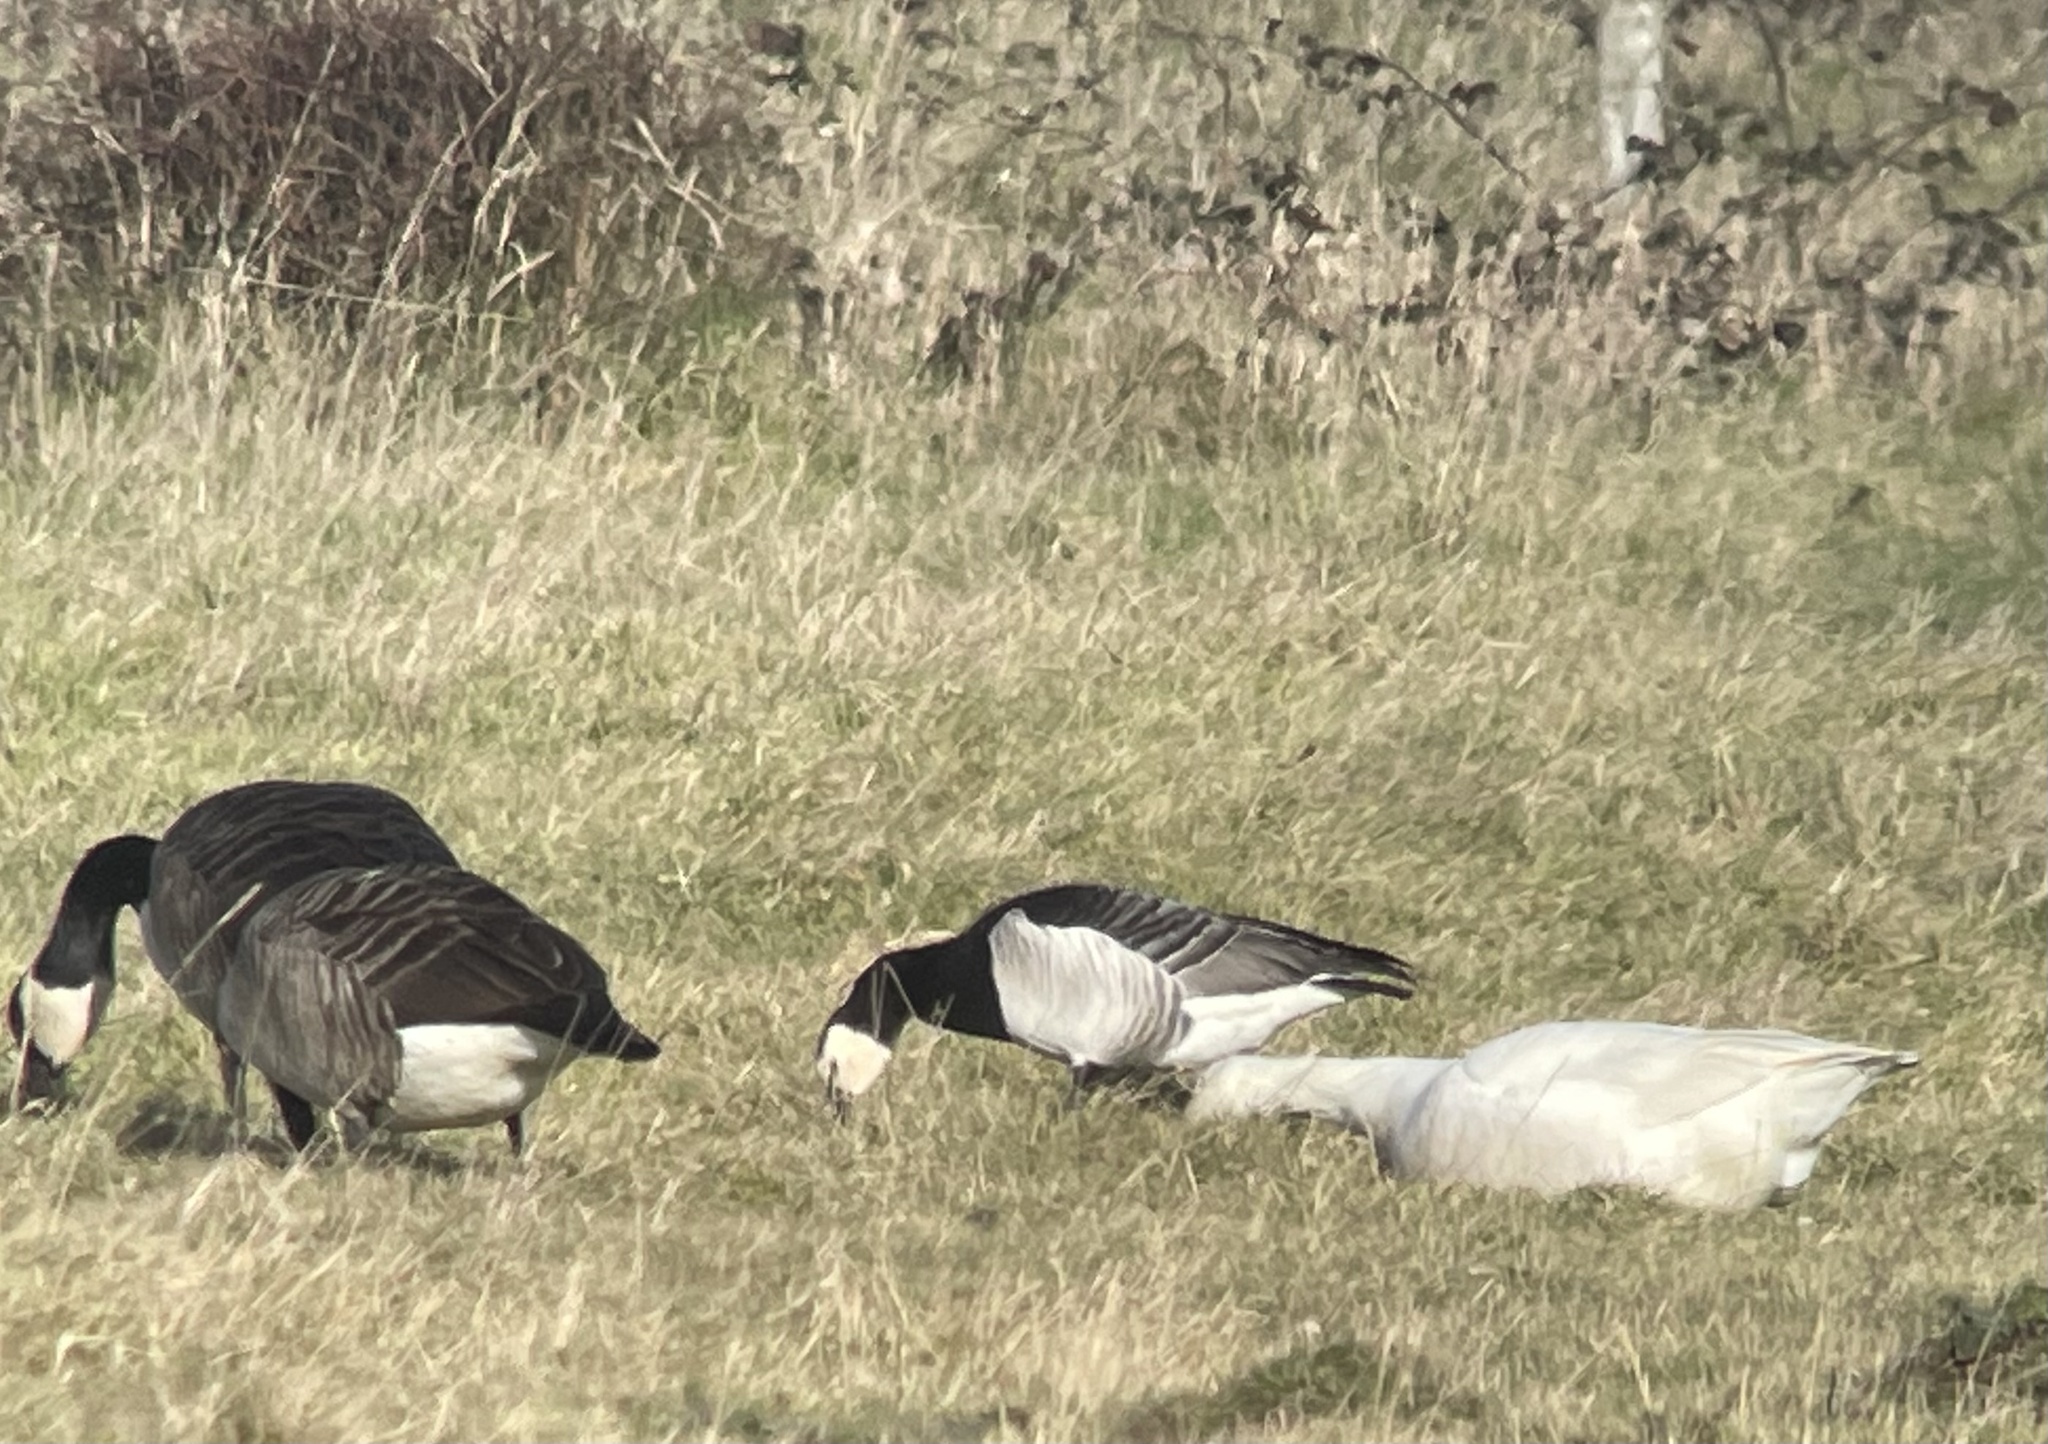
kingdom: Animalia
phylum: Chordata
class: Aves
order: Anseriformes
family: Anatidae
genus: Branta
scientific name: Branta leucopsis
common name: Barnacle goose
